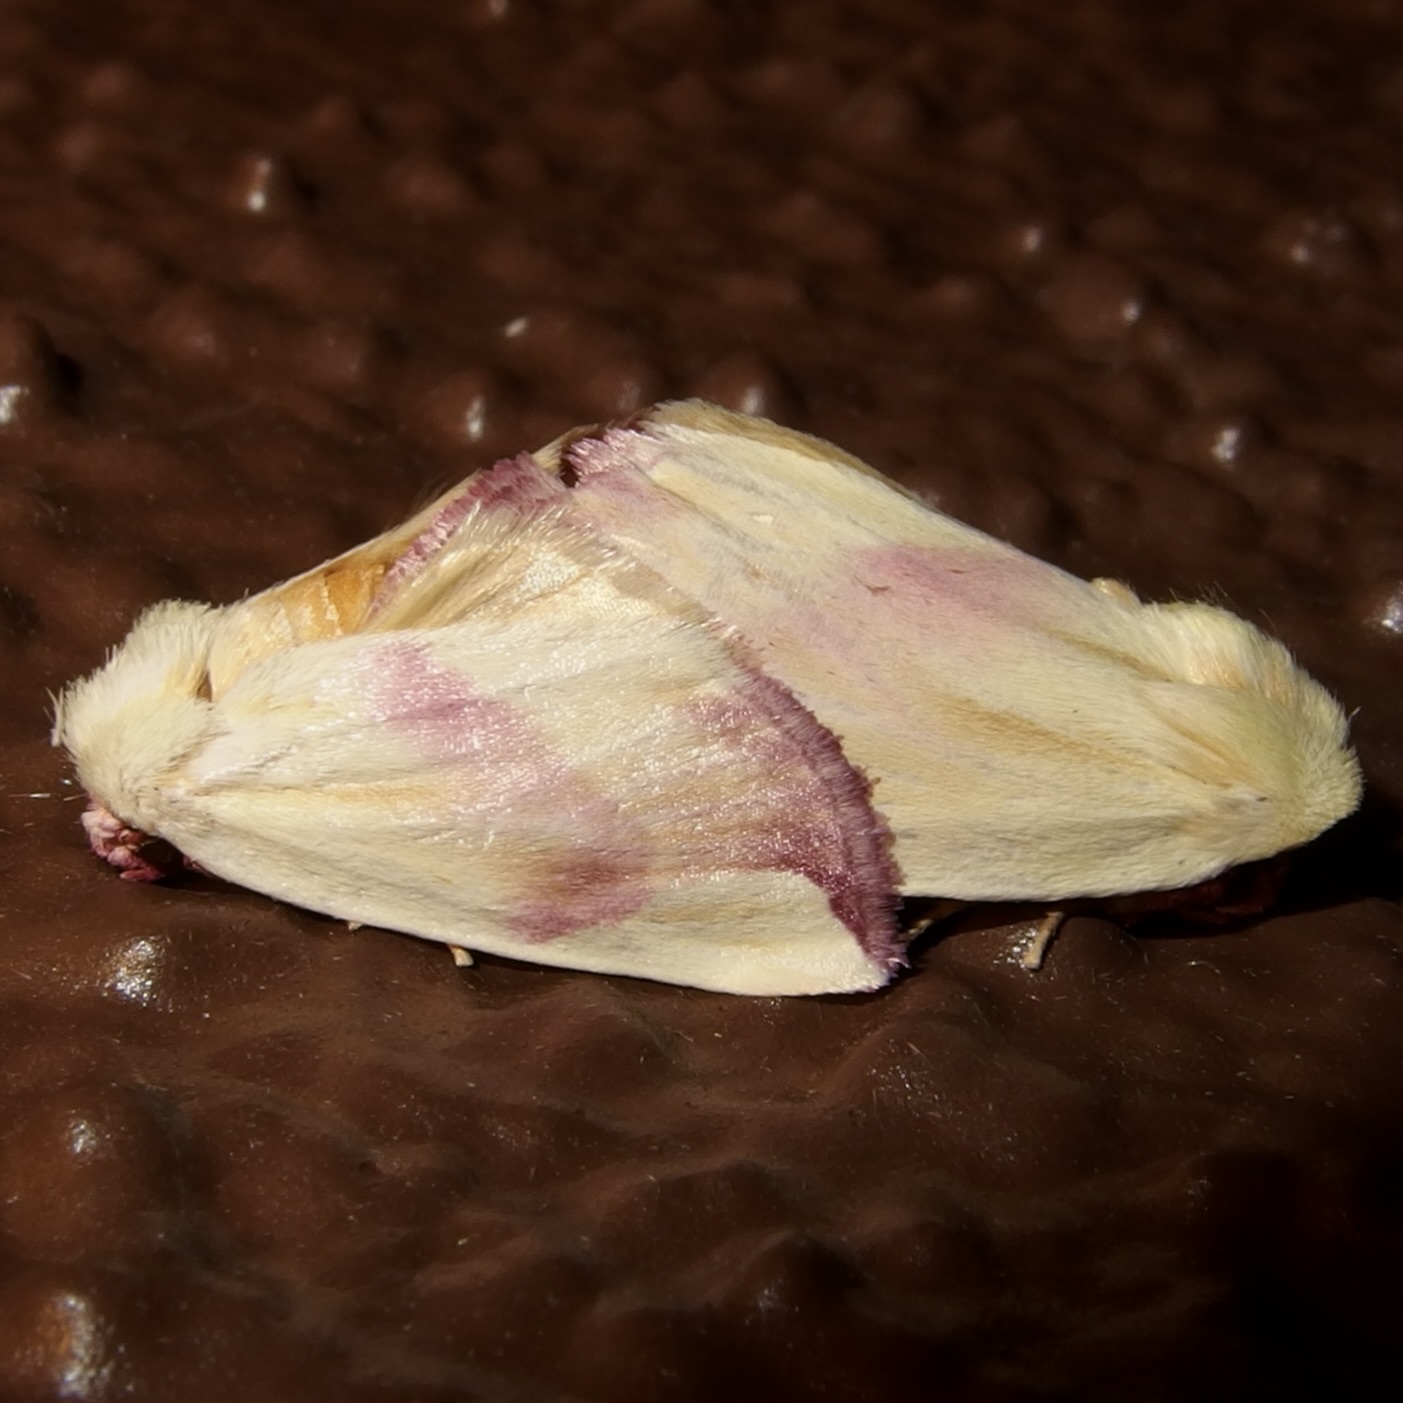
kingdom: Animalia
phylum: Arthropoda
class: Insecta
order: Lepidoptera
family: Noctuidae
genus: Thurberiphaga
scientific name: Thurberiphaga diffusa
